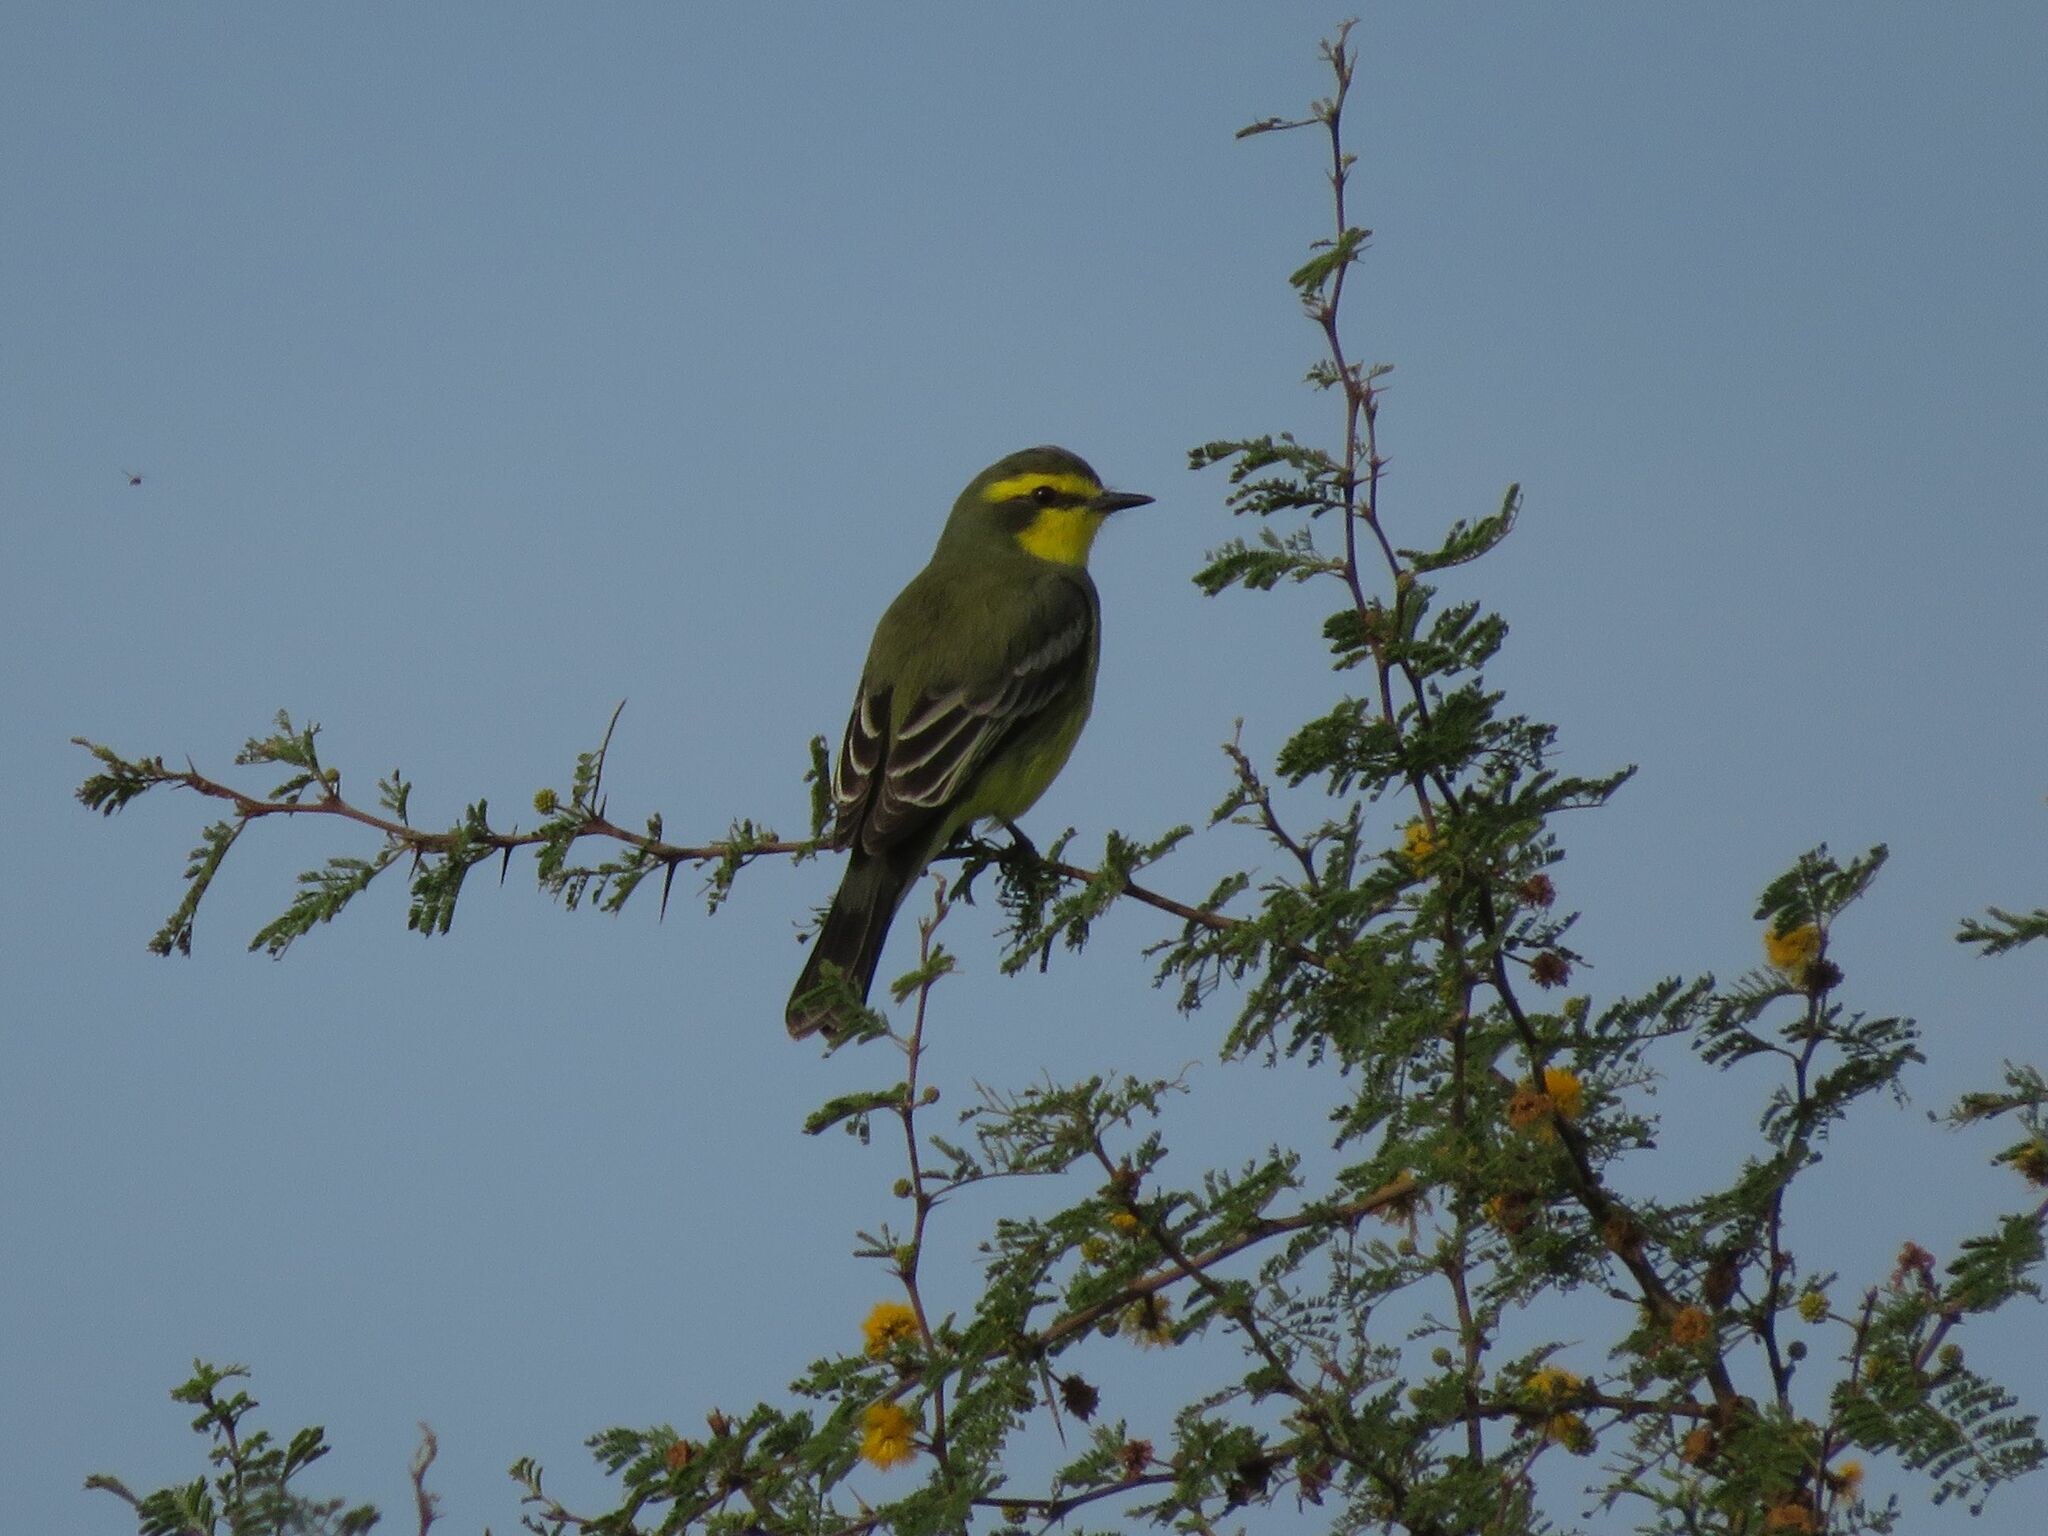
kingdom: Animalia
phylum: Chordata
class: Aves
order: Passeriformes
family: Tyrannidae
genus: Satrapa
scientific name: Satrapa icterophrys
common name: Yellow-browed tyrant
